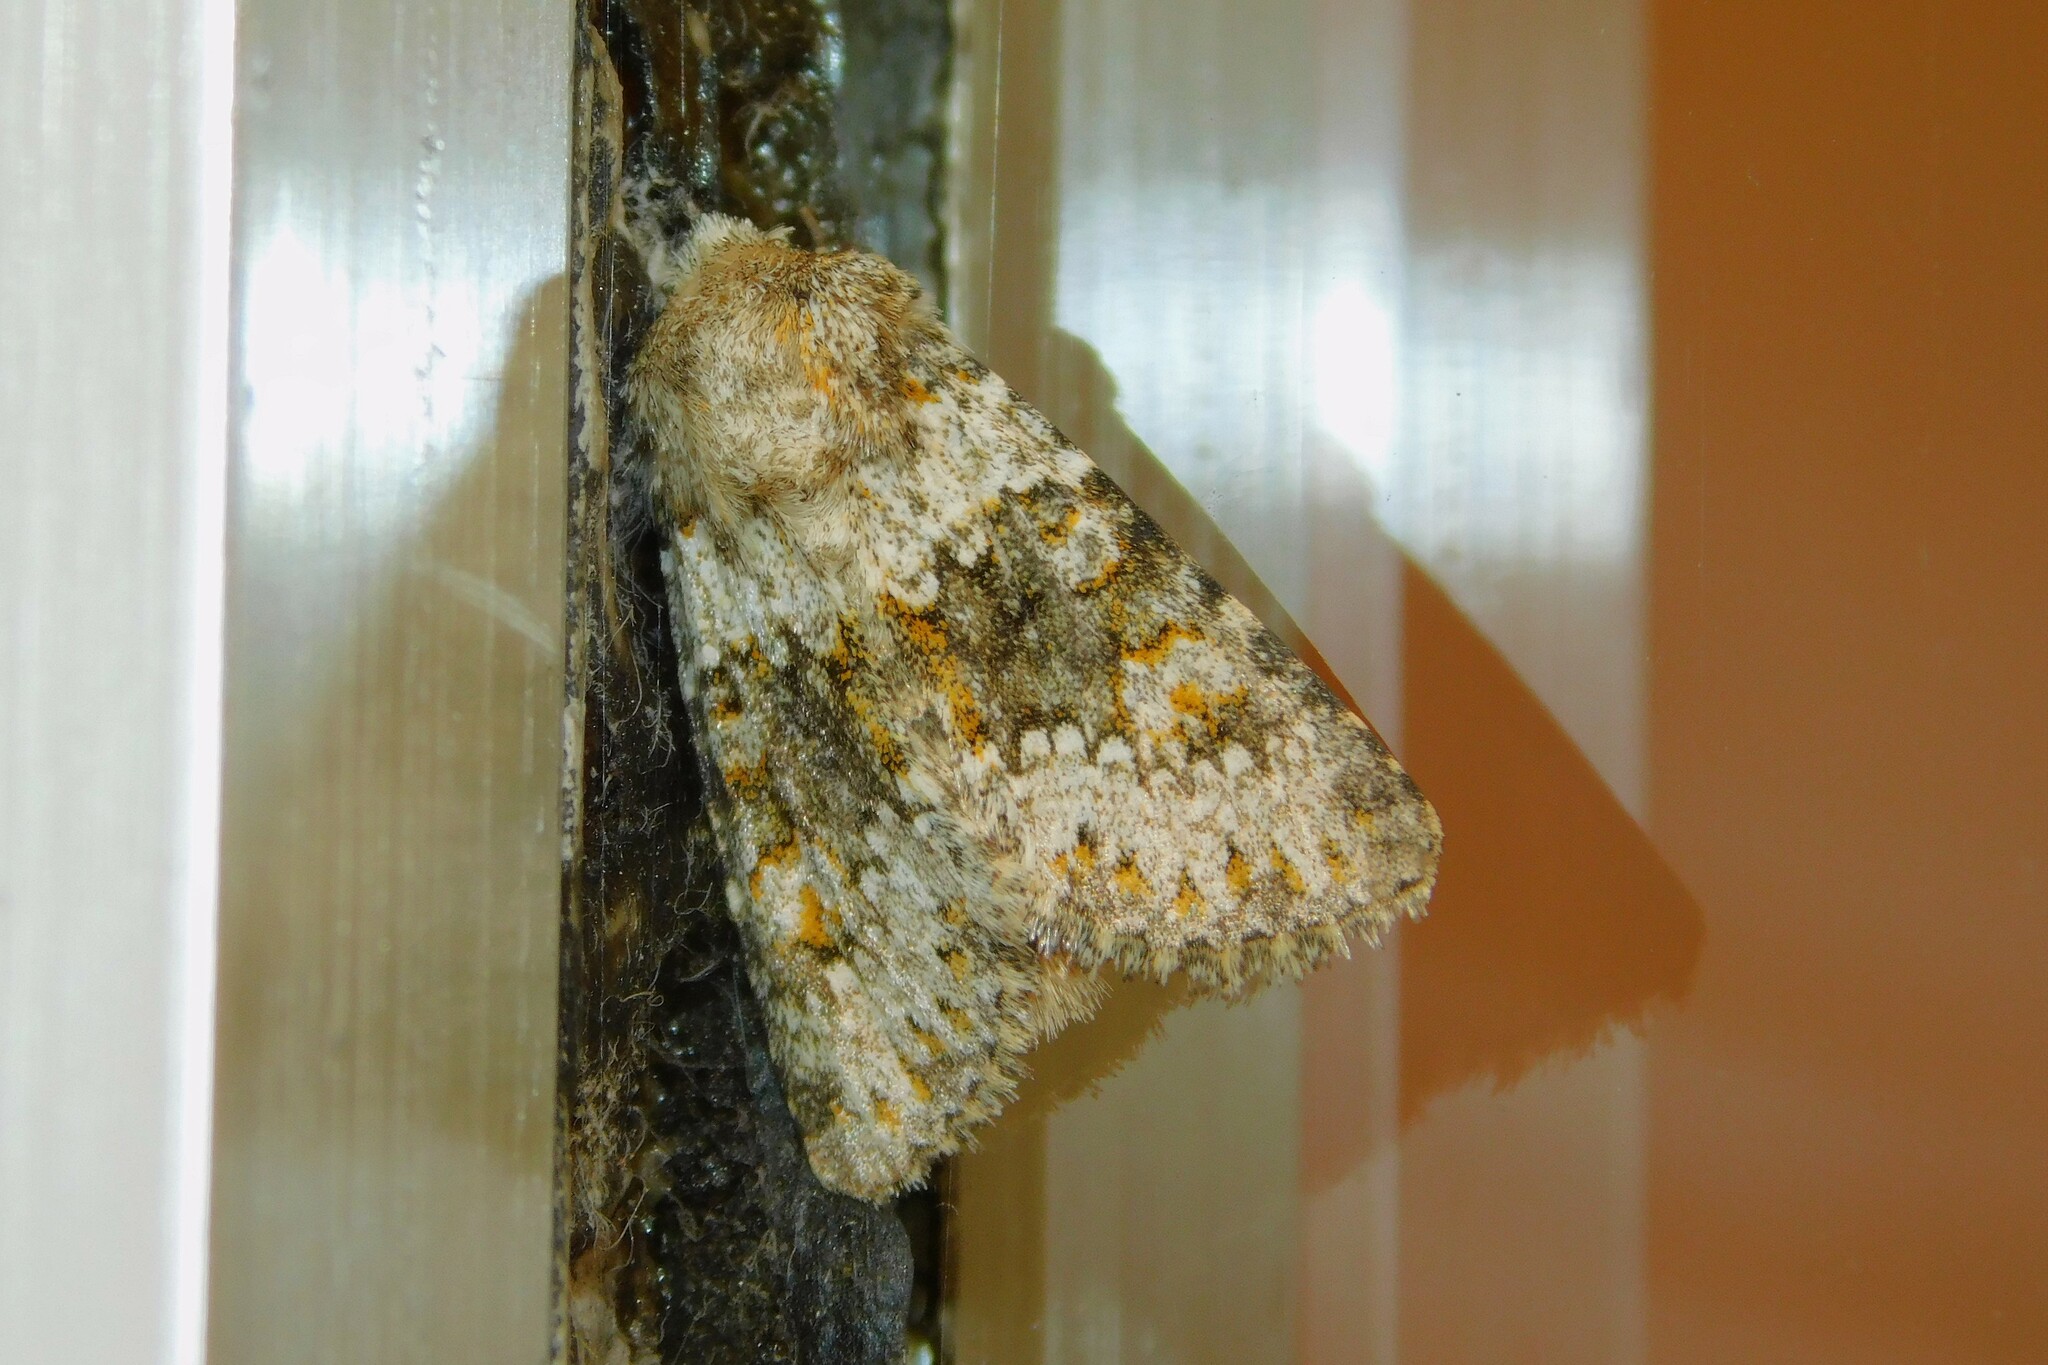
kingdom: Animalia
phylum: Arthropoda
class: Insecta
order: Lepidoptera
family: Noctuidae
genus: Hecatera
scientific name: Hecatera dysodea
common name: Small ranunculus
